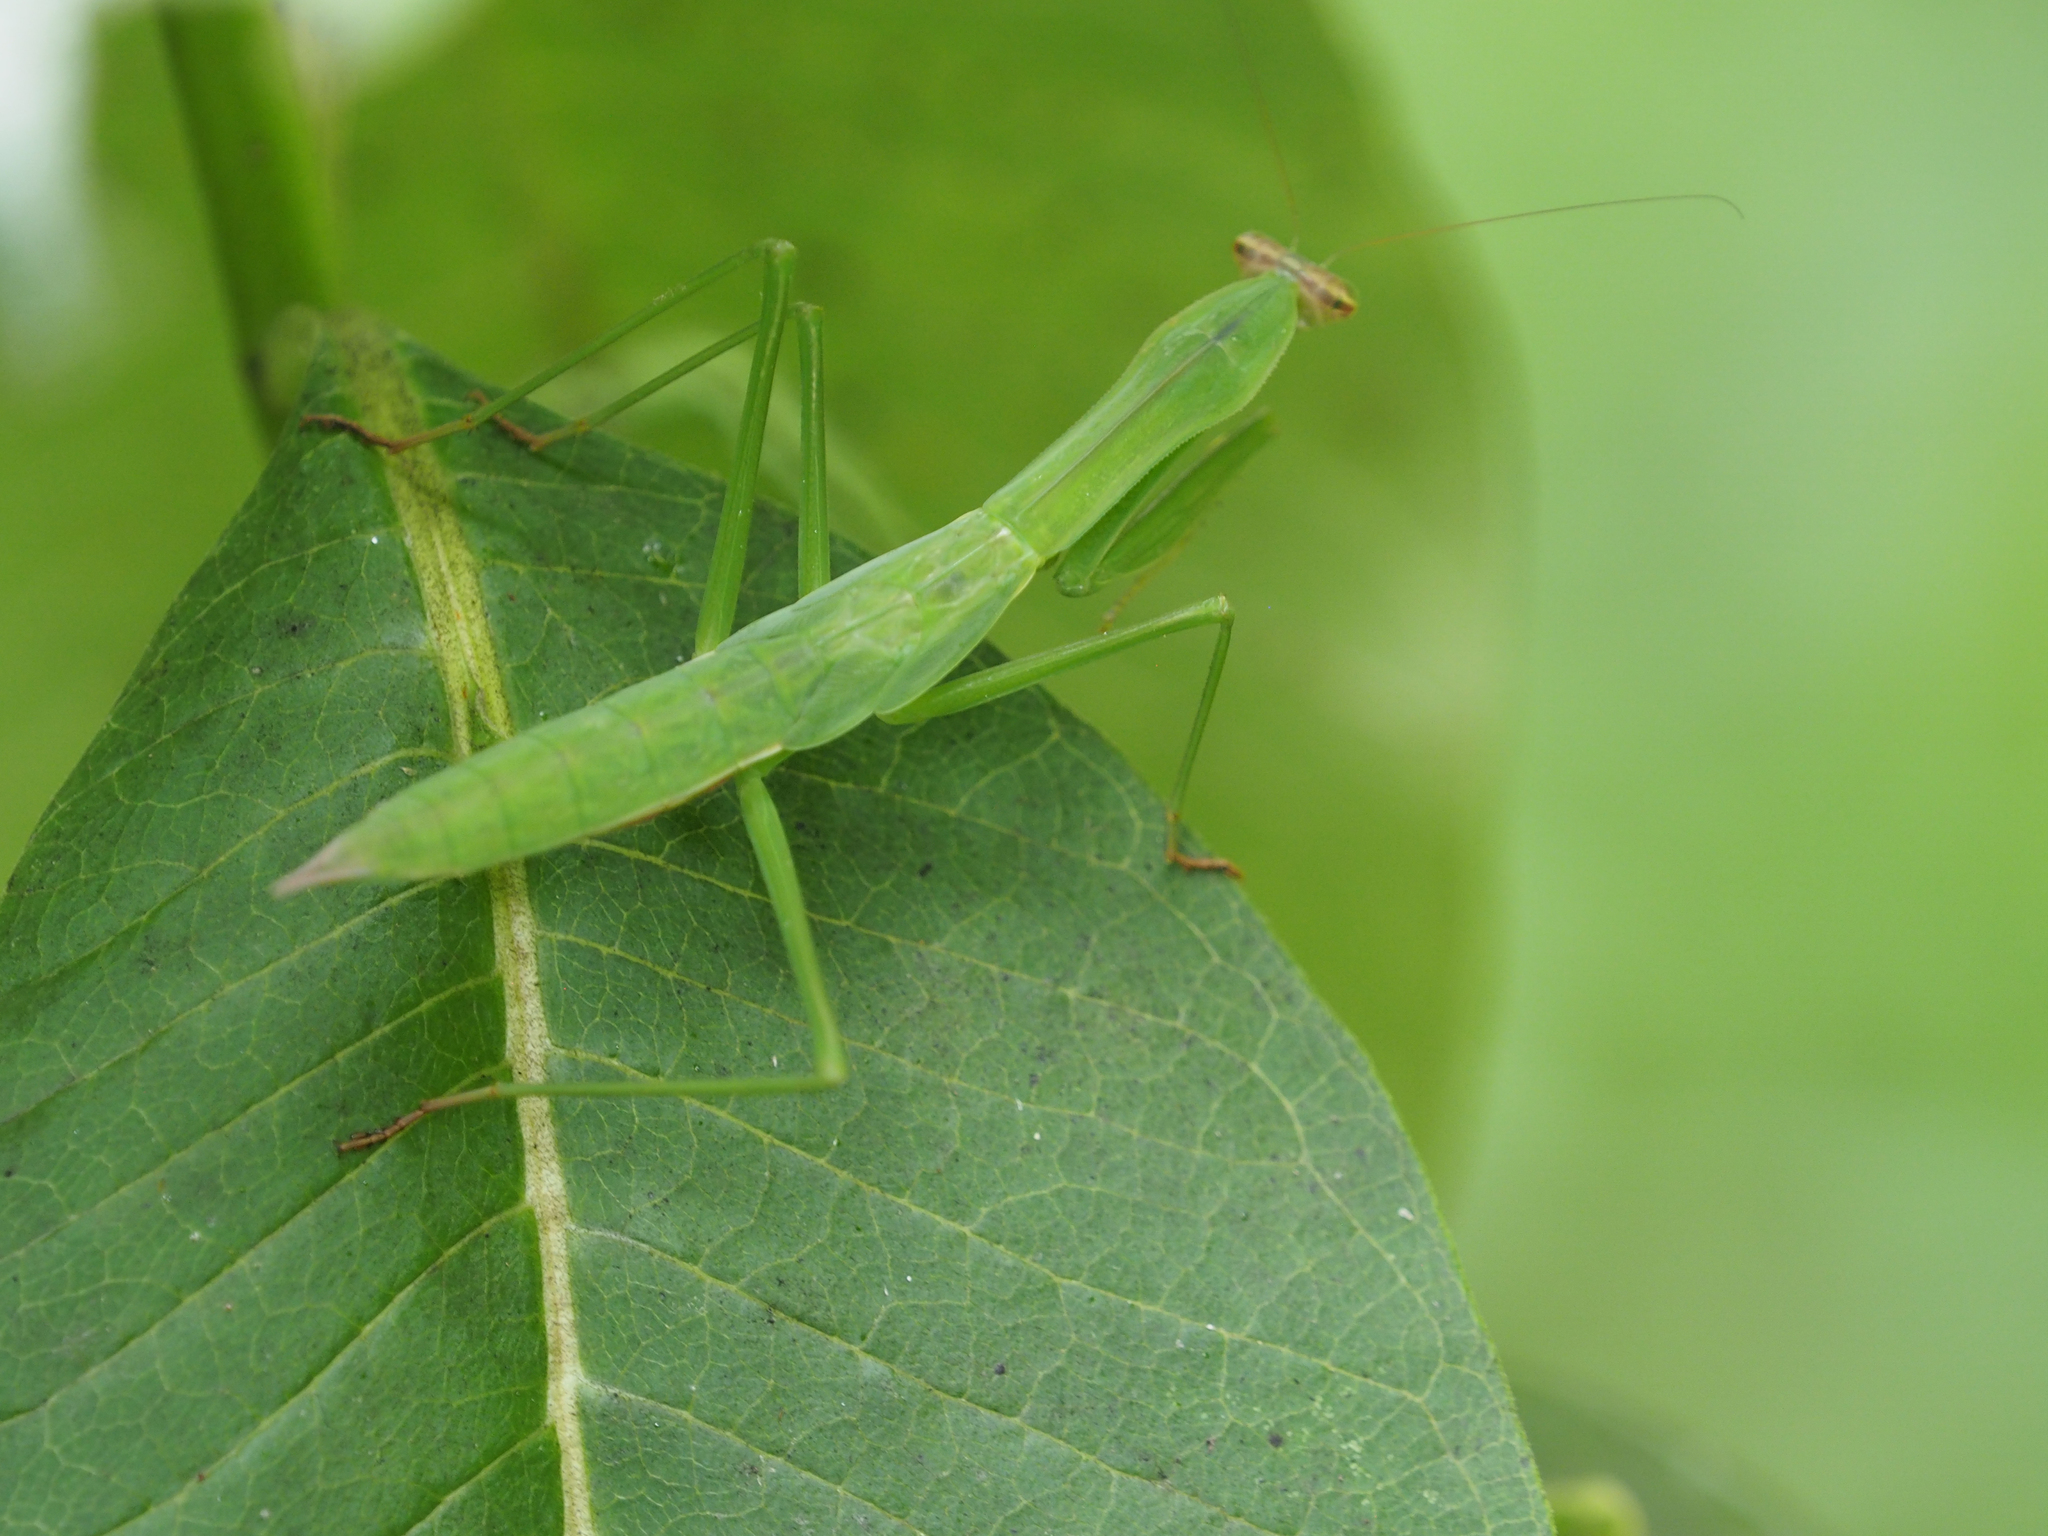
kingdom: Animalia
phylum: Arthropoda
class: Insecta
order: Mantodea
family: Mantidae
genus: Tenodera
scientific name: Tenodera sinensis
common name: Chinese mantis
